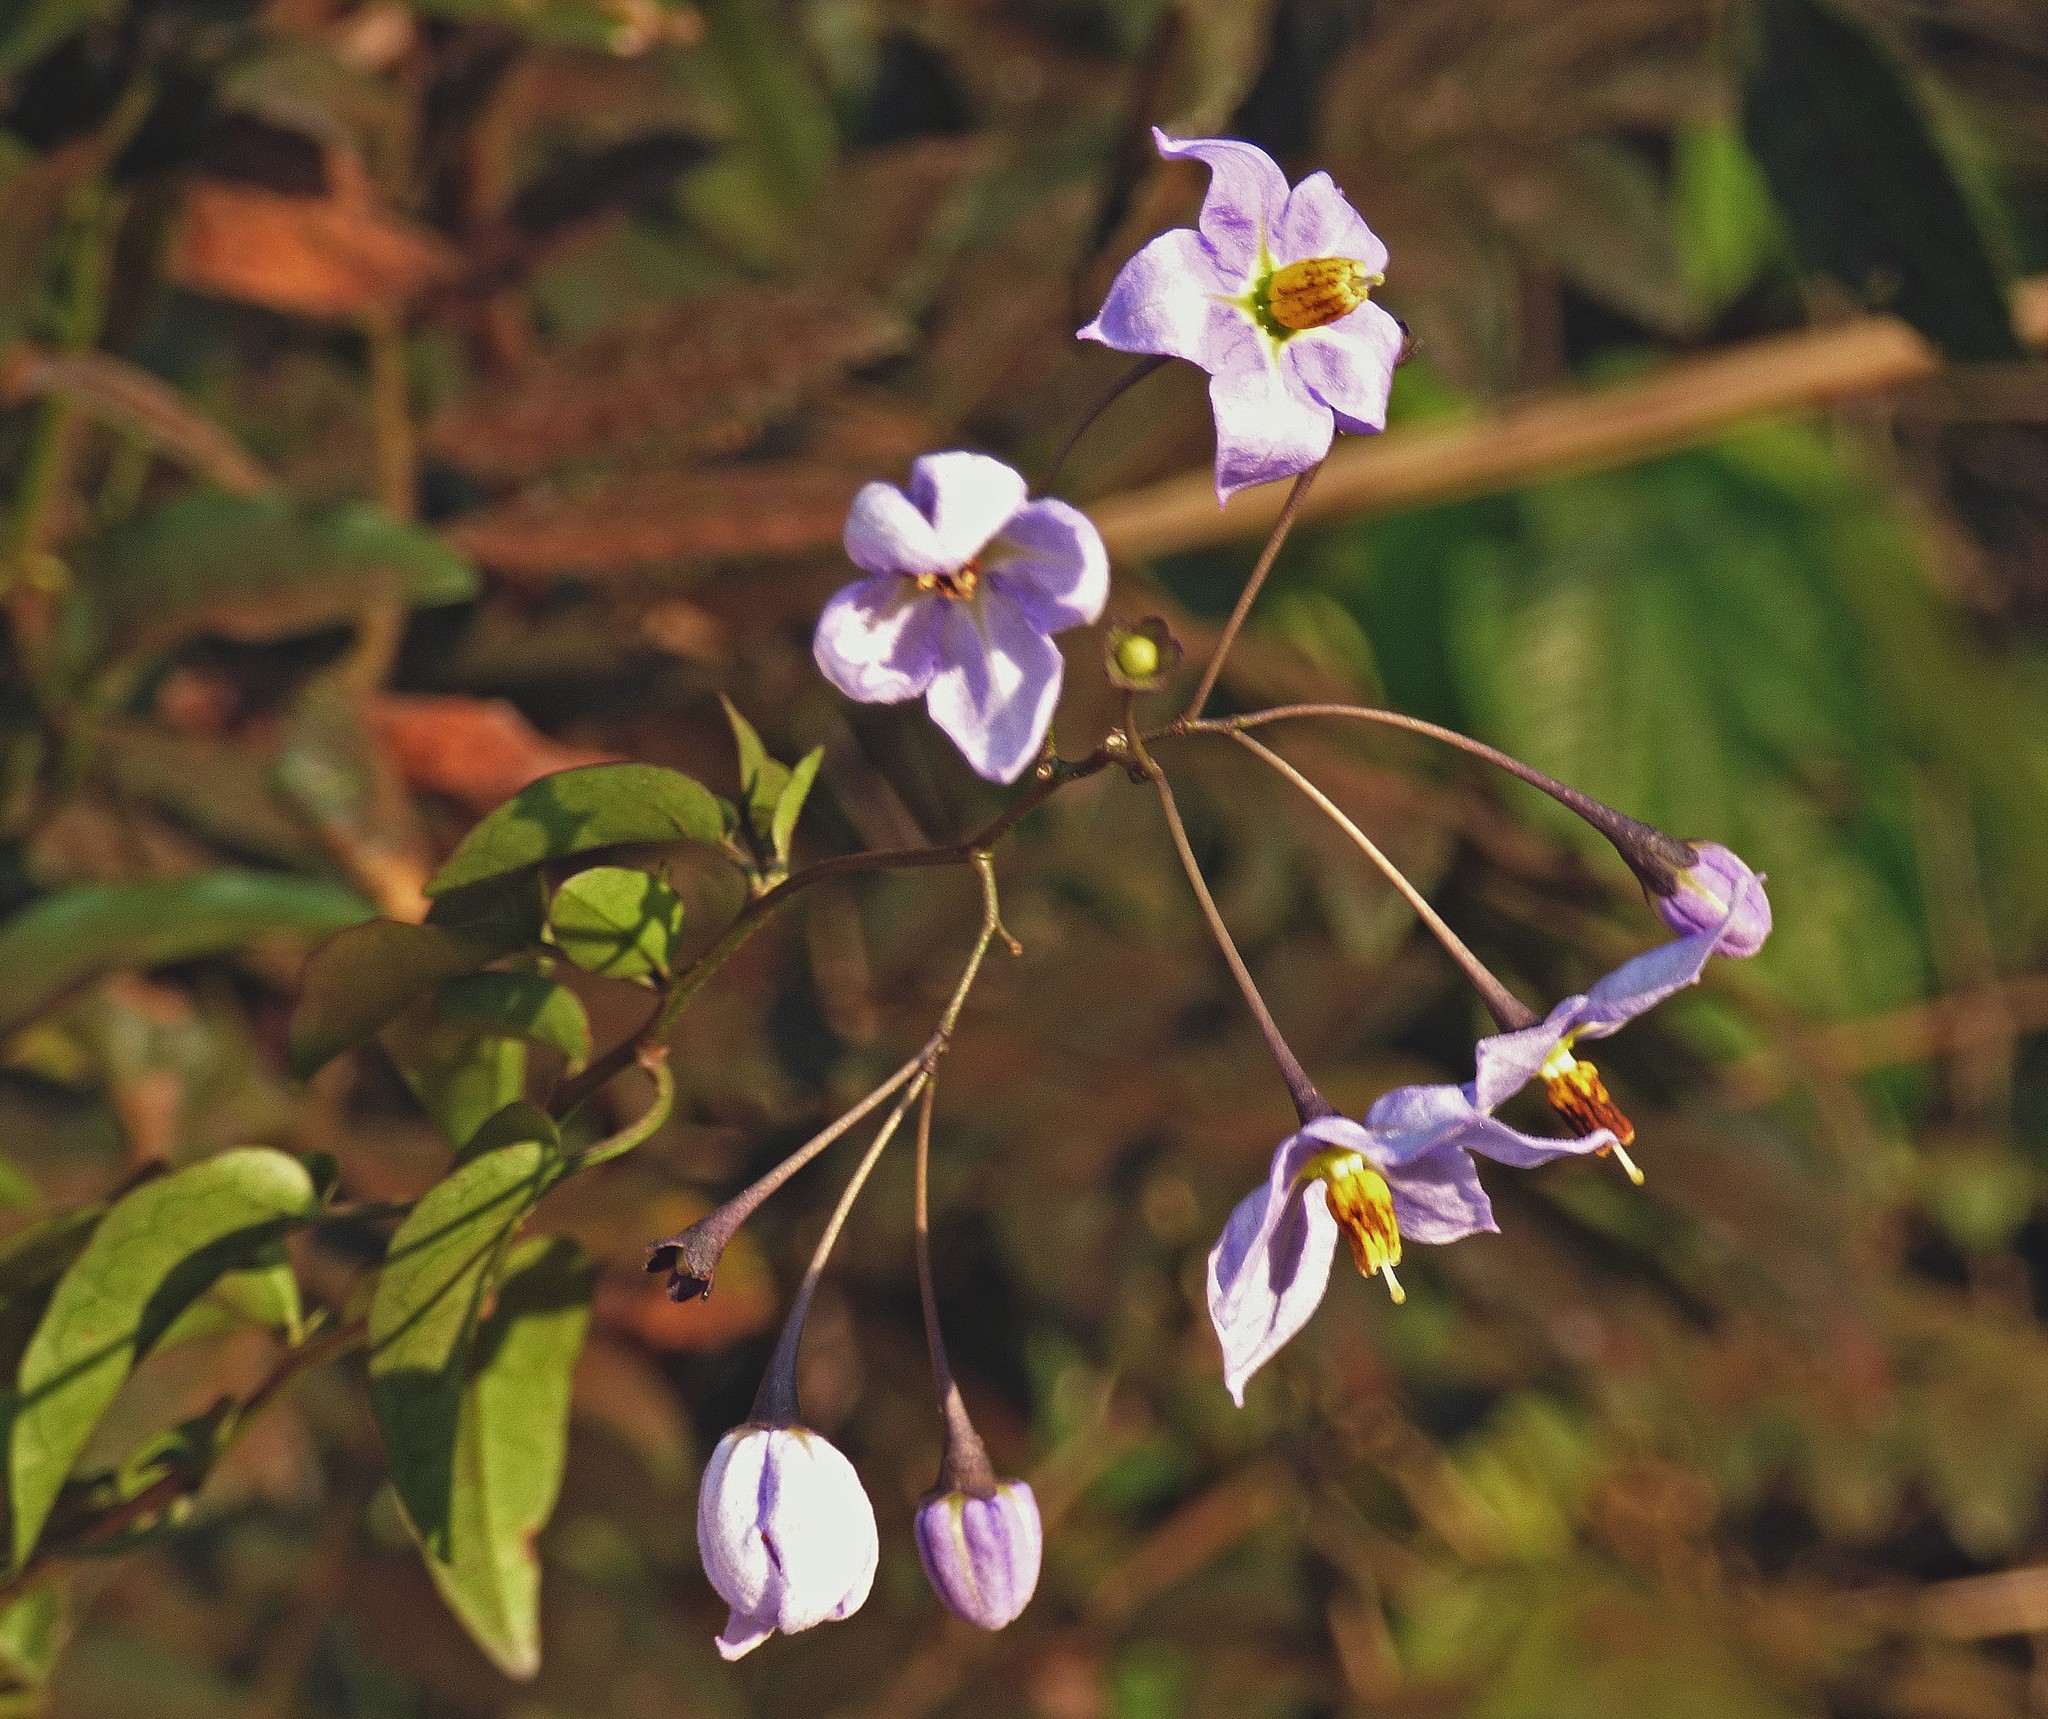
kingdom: Plantae
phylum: Tracheophyta
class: Magnoliopsida
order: Solanales
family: Solanaceae
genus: Solanum
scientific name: Solanum laxum
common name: Nightshade
